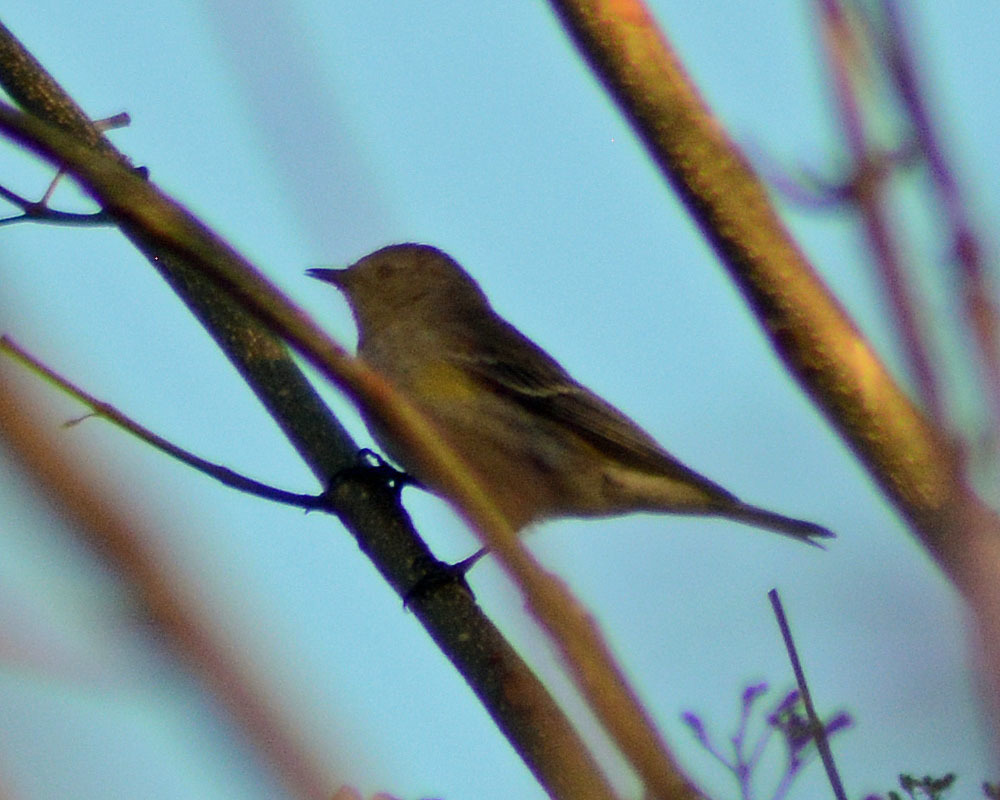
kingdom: Animalia
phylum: Chordata
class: Aves
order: Passeriformes
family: Parulidae
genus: Setophaga
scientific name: Setophaga coronata
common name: Myrtle warbler
